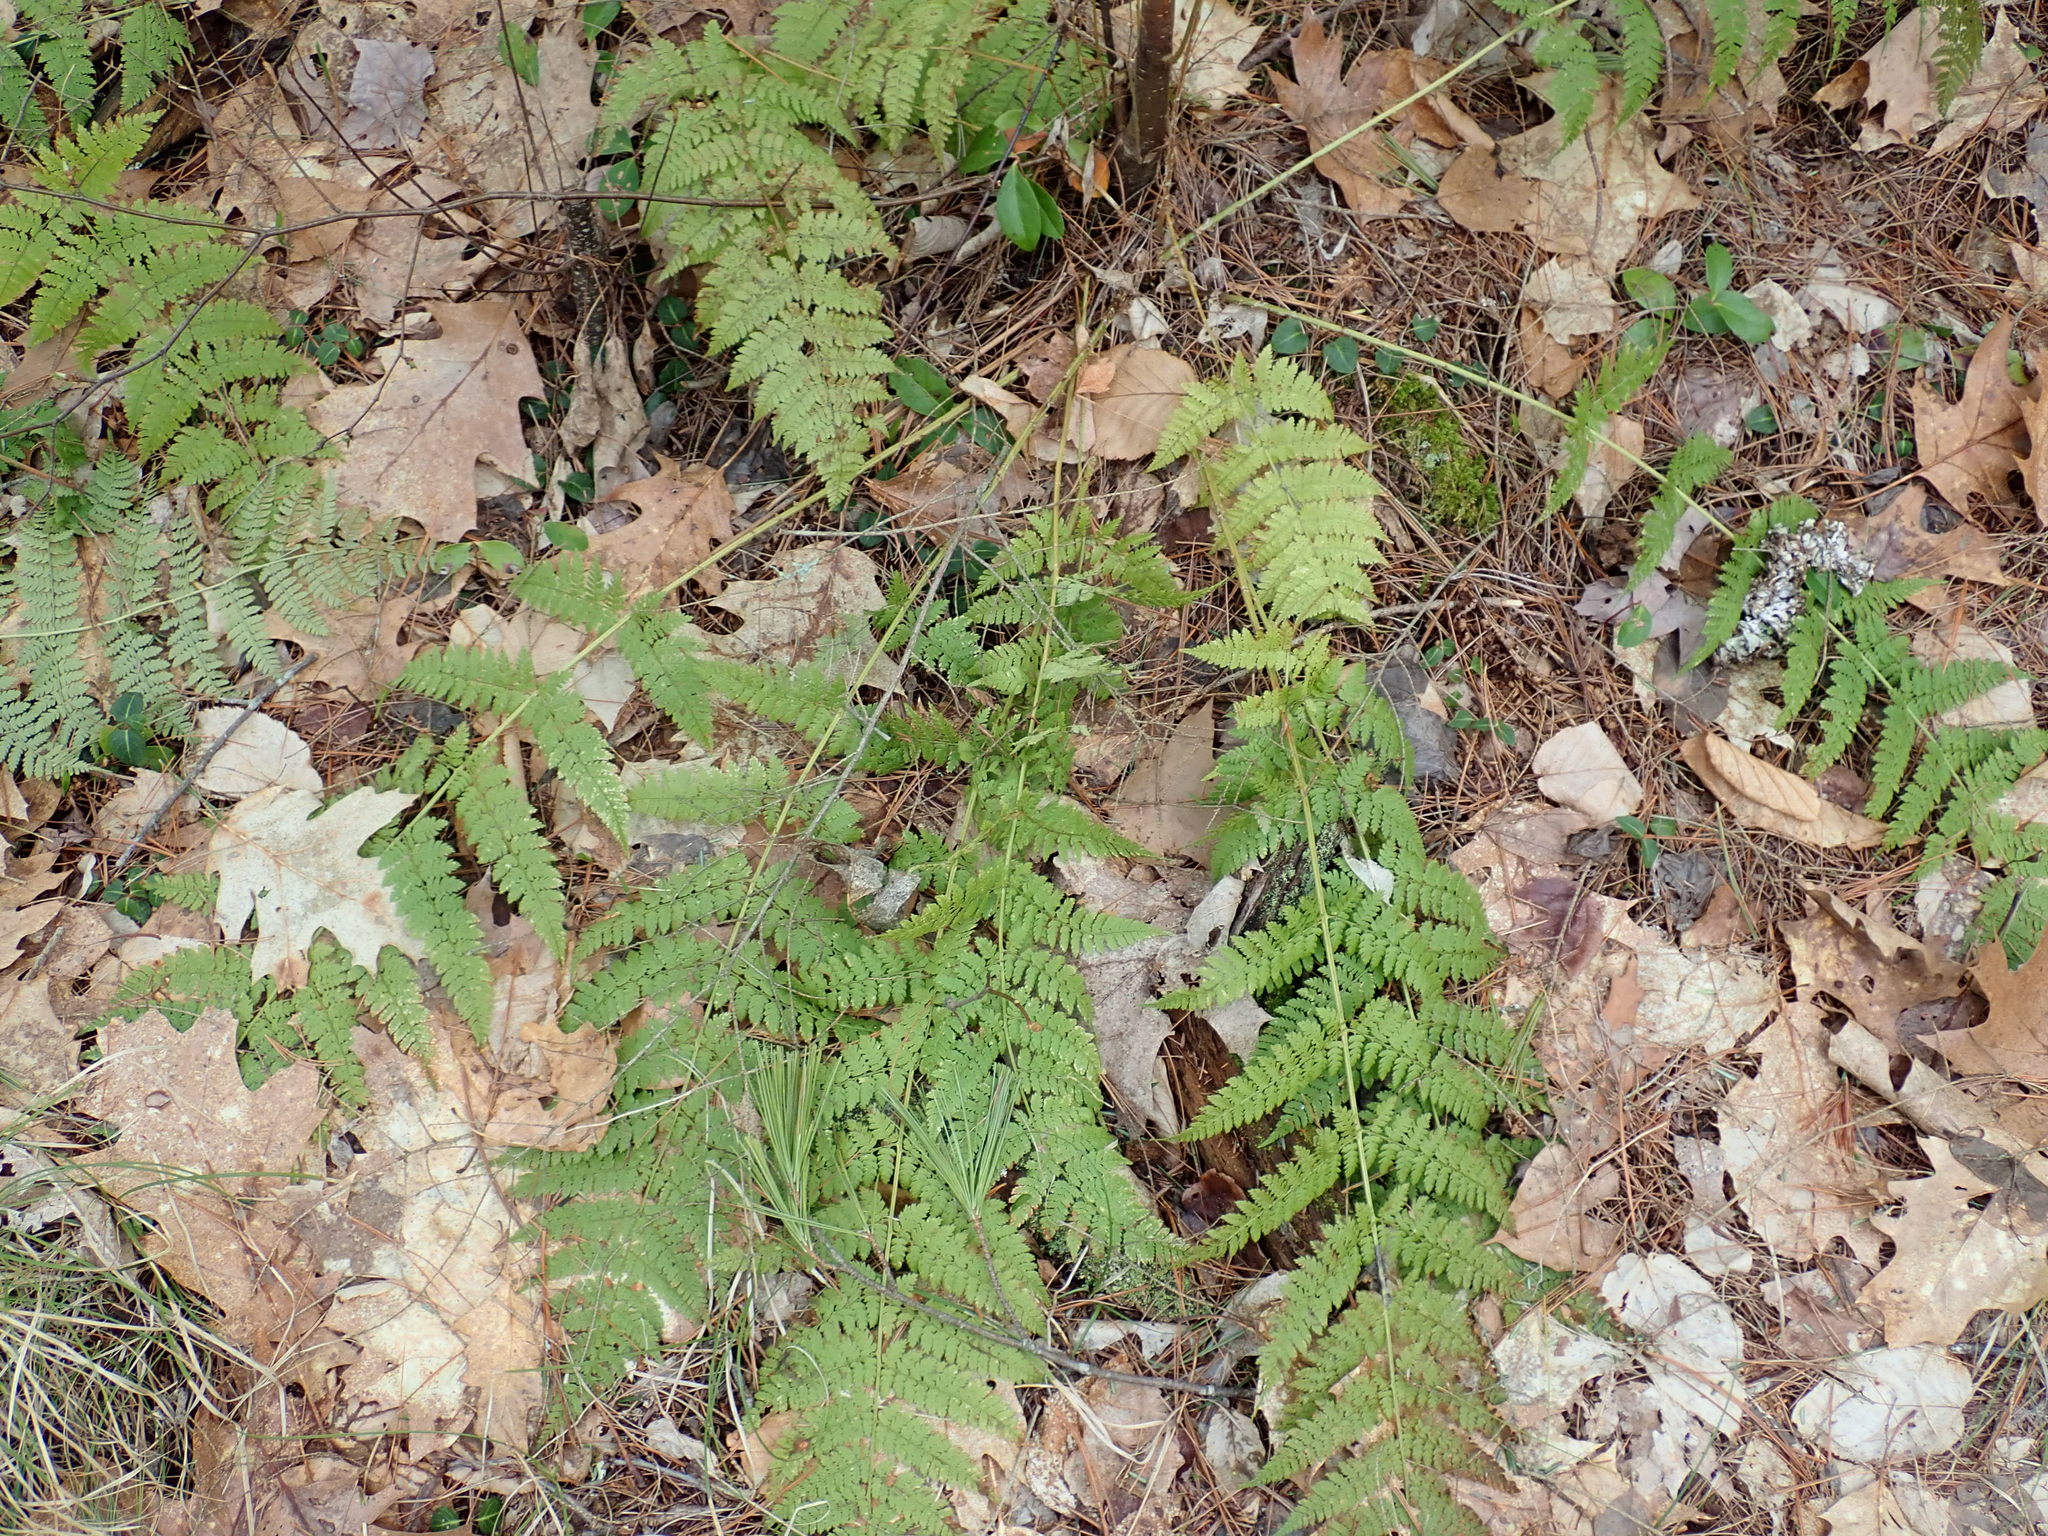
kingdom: Plantae
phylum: Tracheophyta
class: Polypodiopsida
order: Polypodiales
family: Dryopteridaceae
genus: Dryopteris
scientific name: Dryopteris intermedia
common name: Evergreen wood fern
